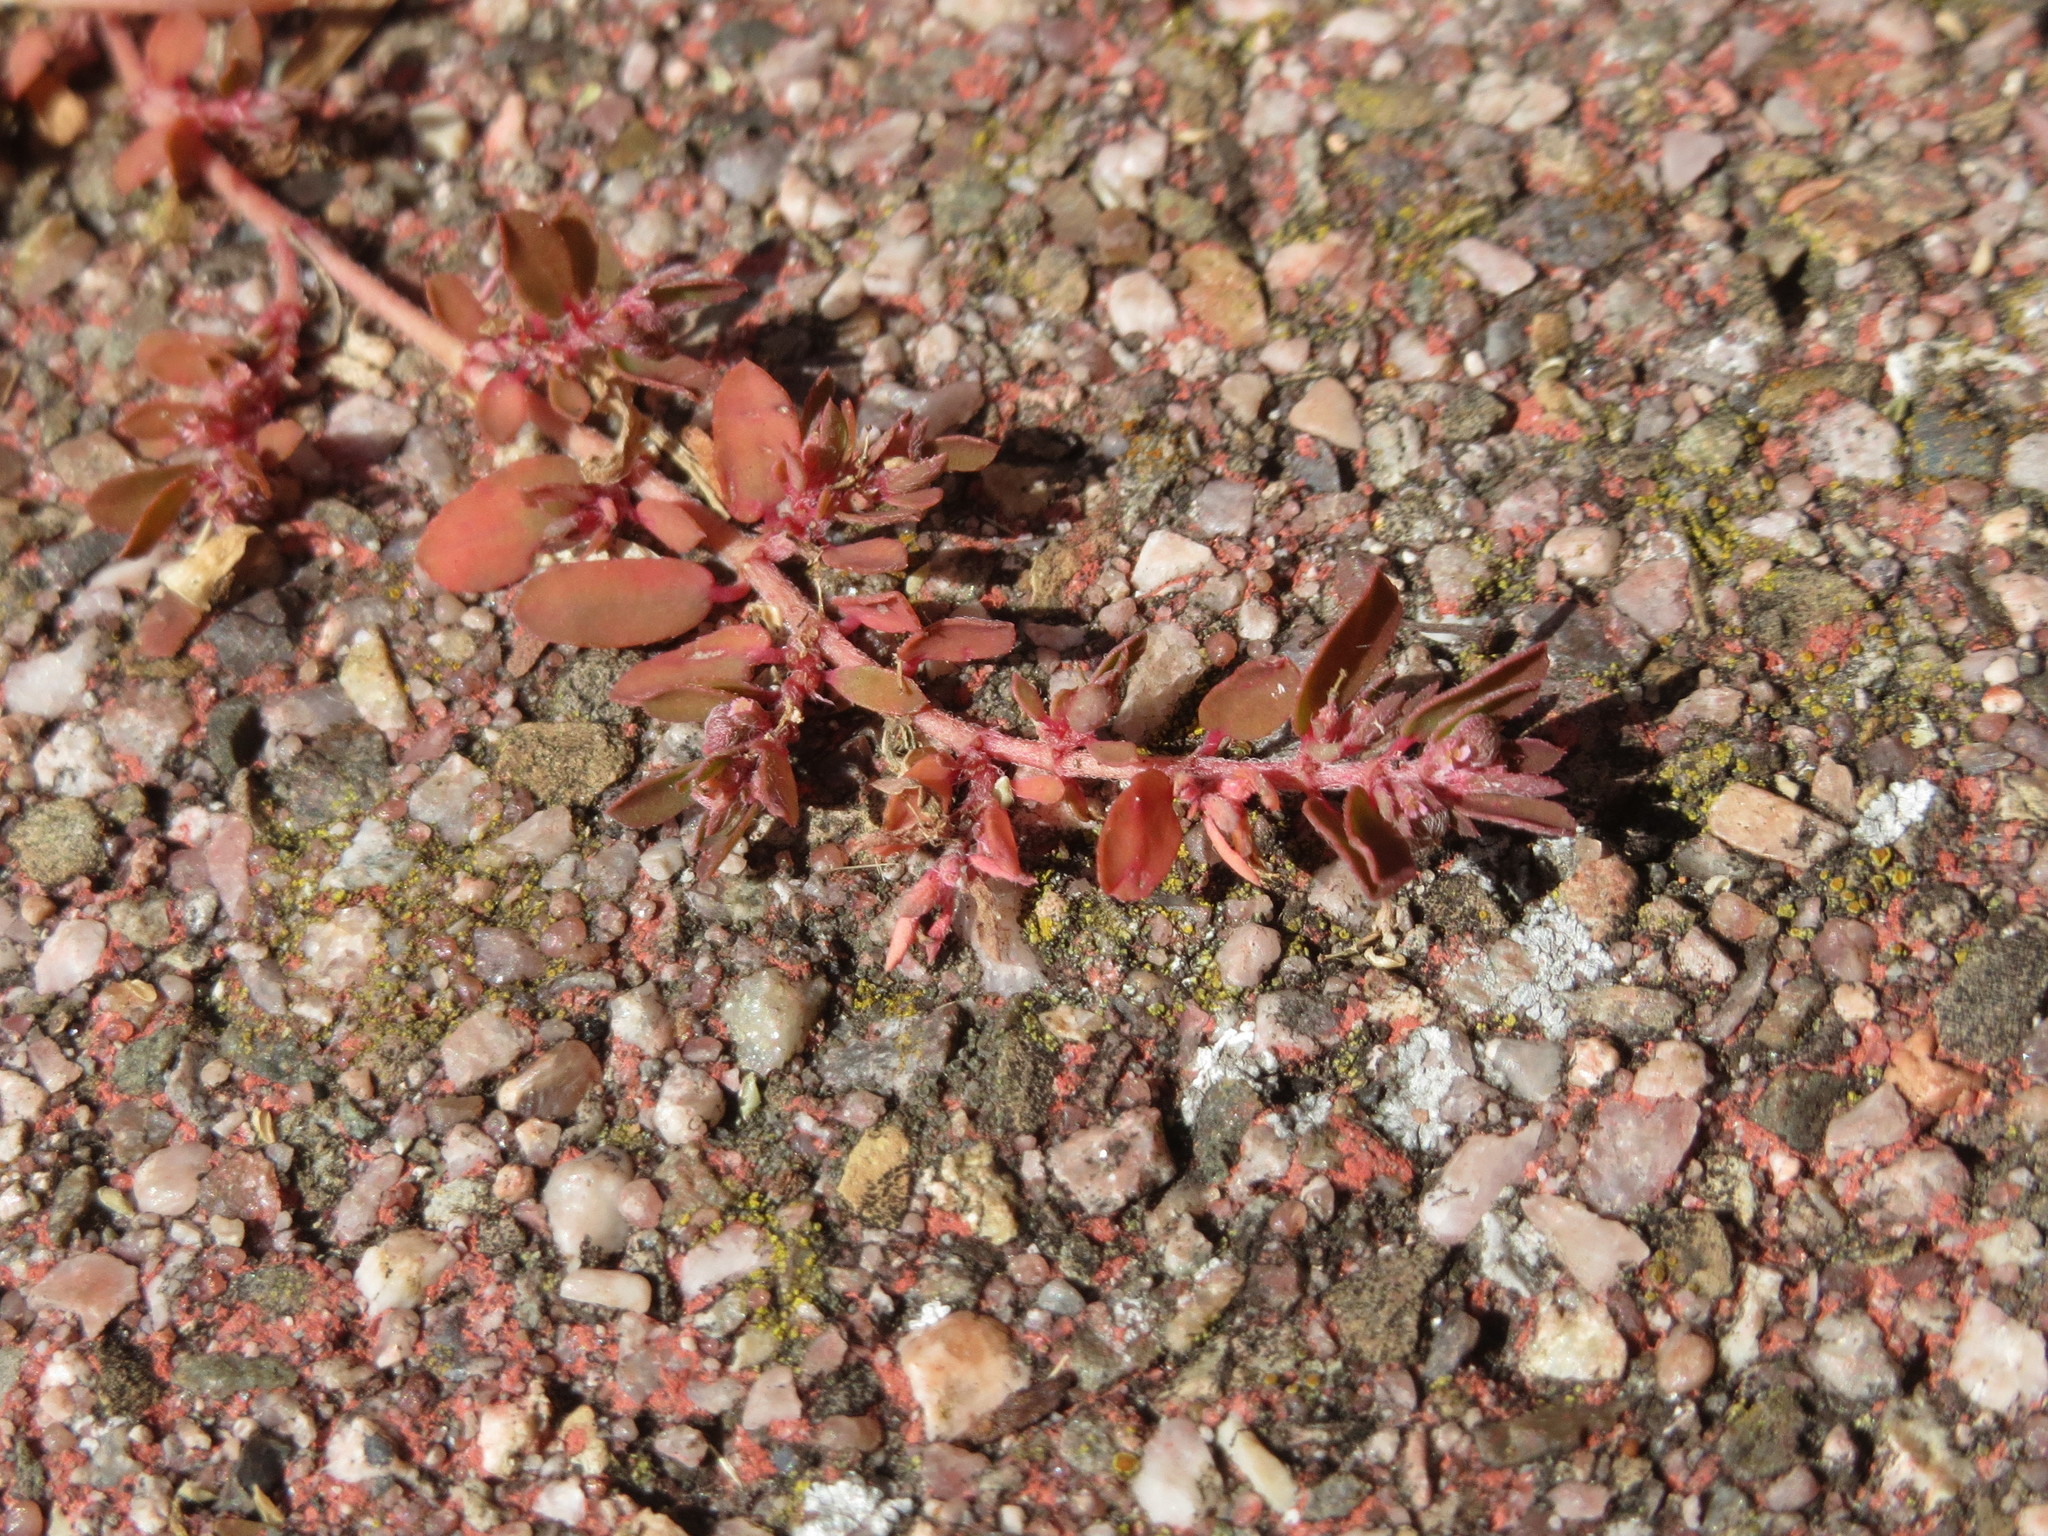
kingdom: Plantae
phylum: Tracheophyta
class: Magnoliopsida
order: Malpighiales
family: Euphorbiaceae
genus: Euphorbia
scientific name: Euphorbia maculata
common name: Spotted spurge
